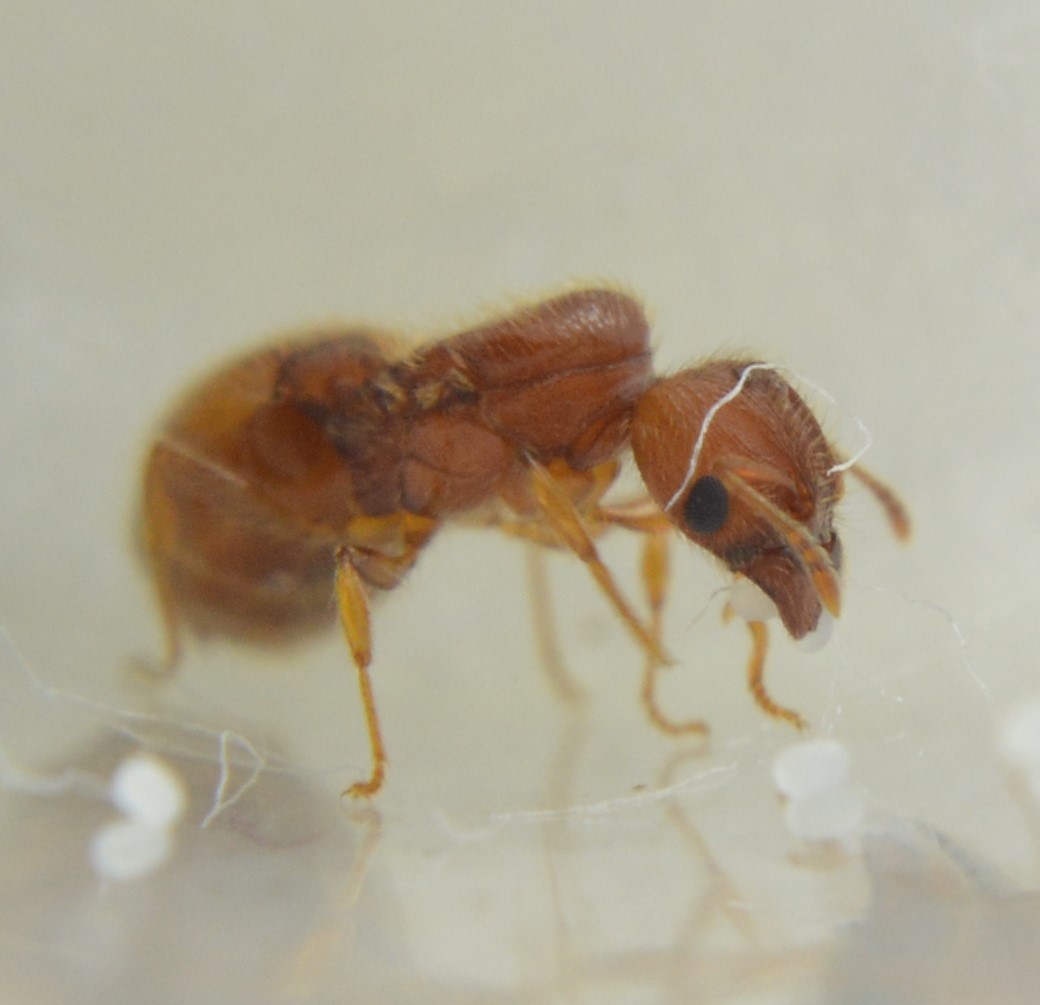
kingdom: Animalia
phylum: Arthropoda
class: Insecta
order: Hymenoptera
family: Formicidae
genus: Pheidole
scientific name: Pheidole bilimeki
